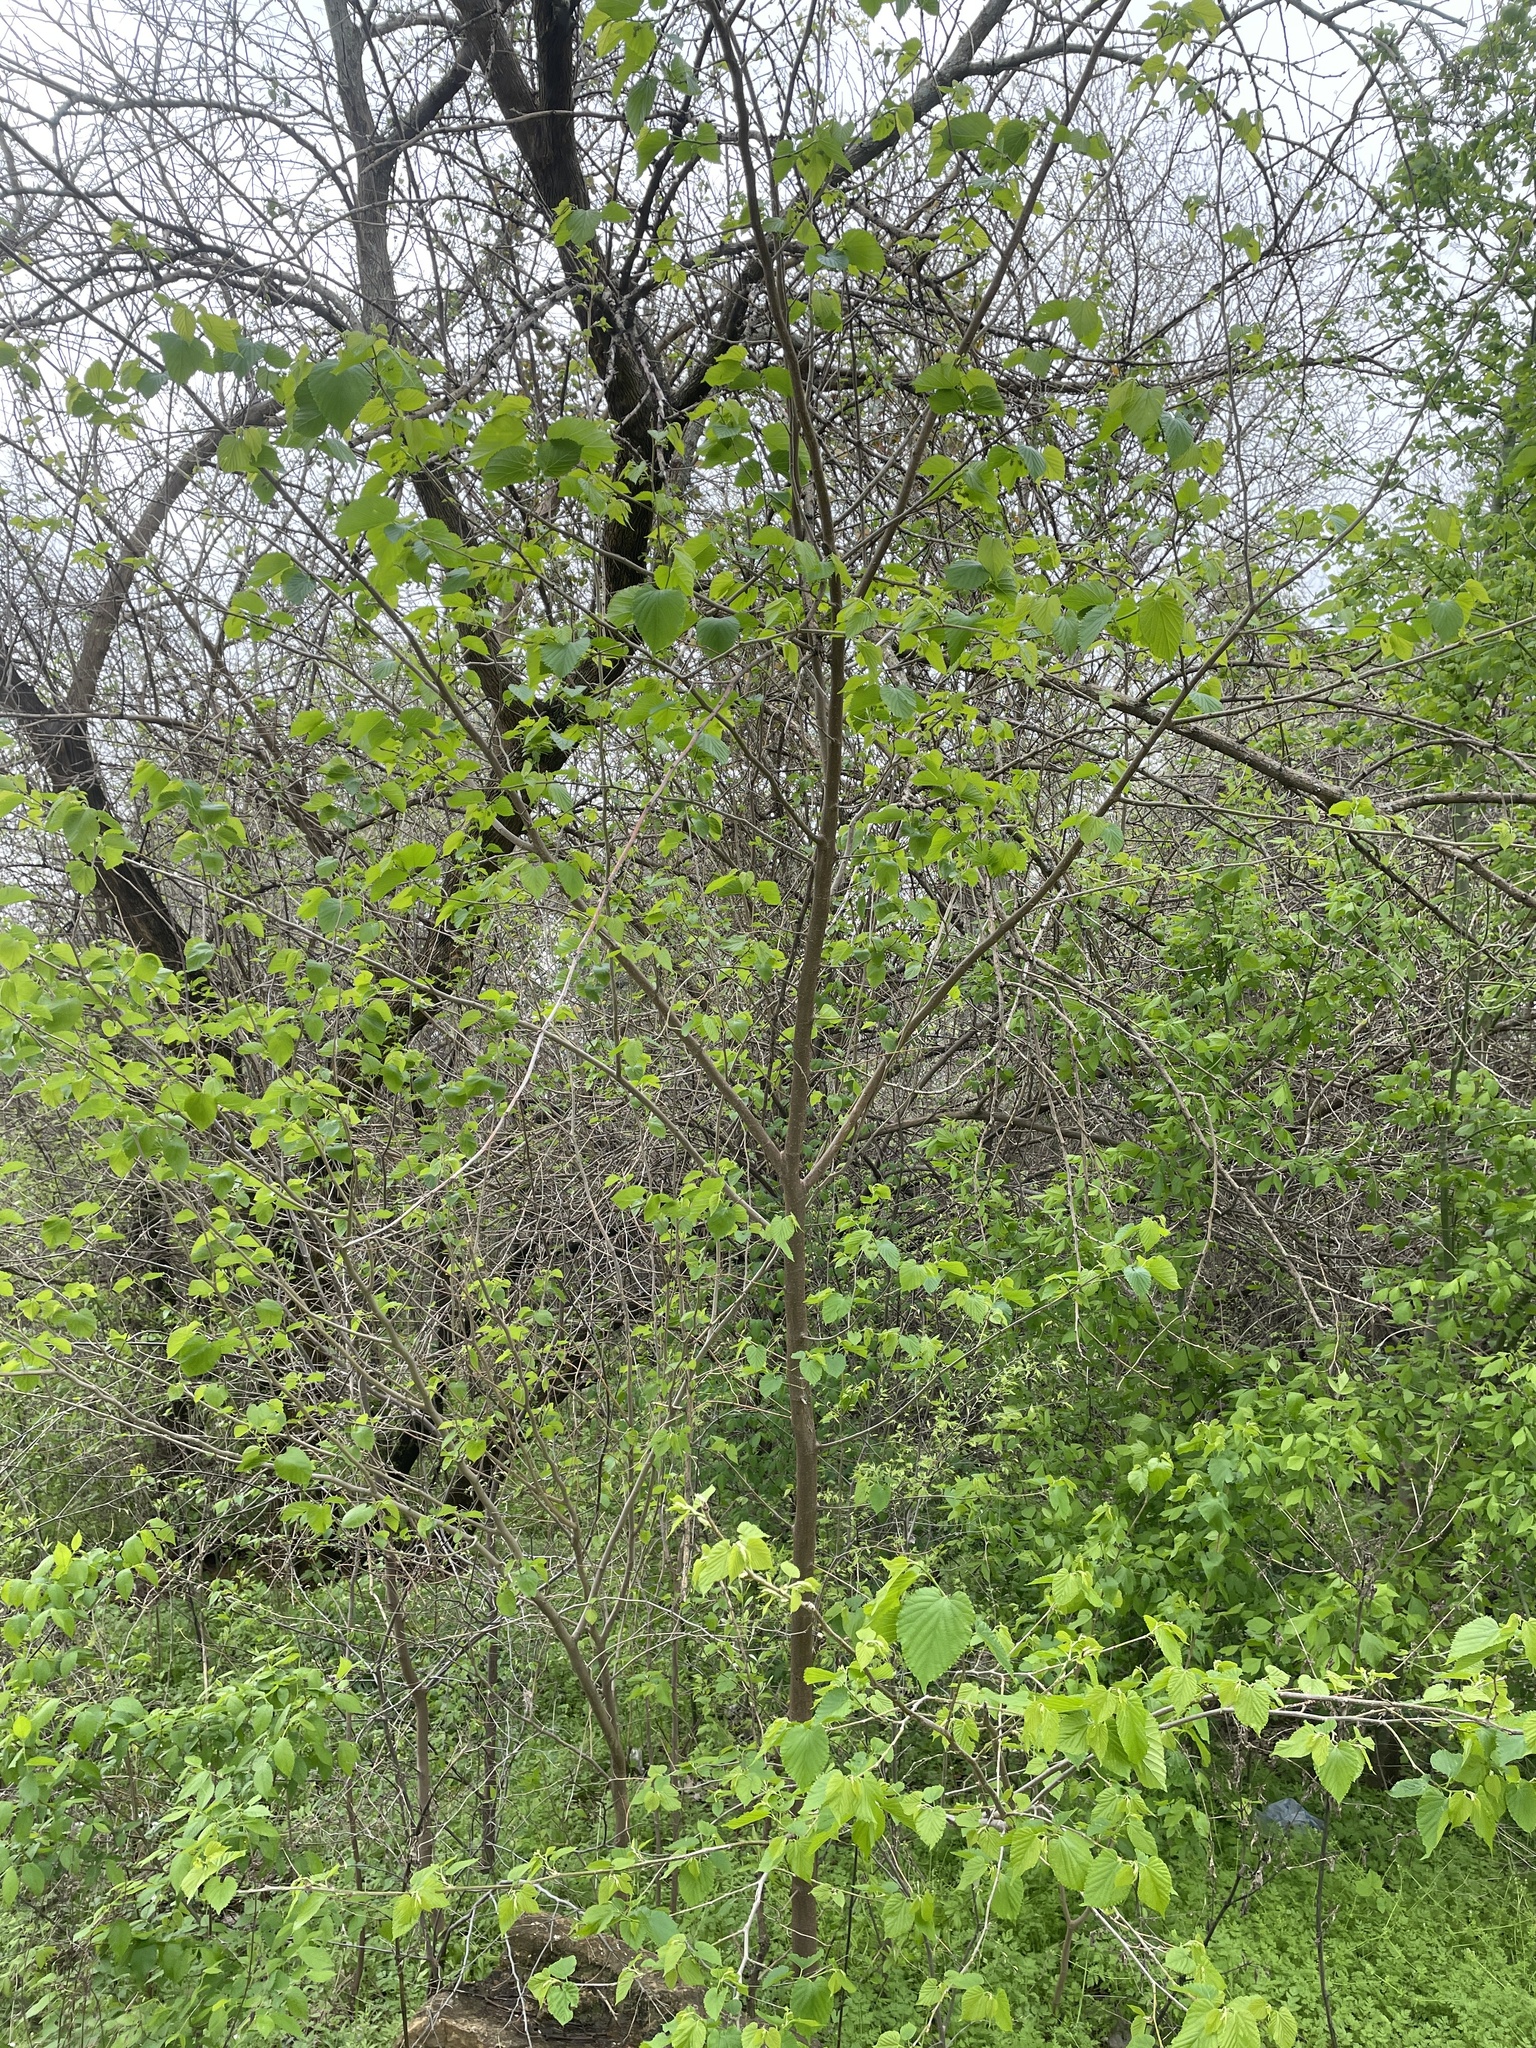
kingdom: Plantae
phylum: Tracheophyta
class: Magnoliopsida
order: Rosales
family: Moraceae
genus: Morus
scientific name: Morus rubra
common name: Red mulberry
